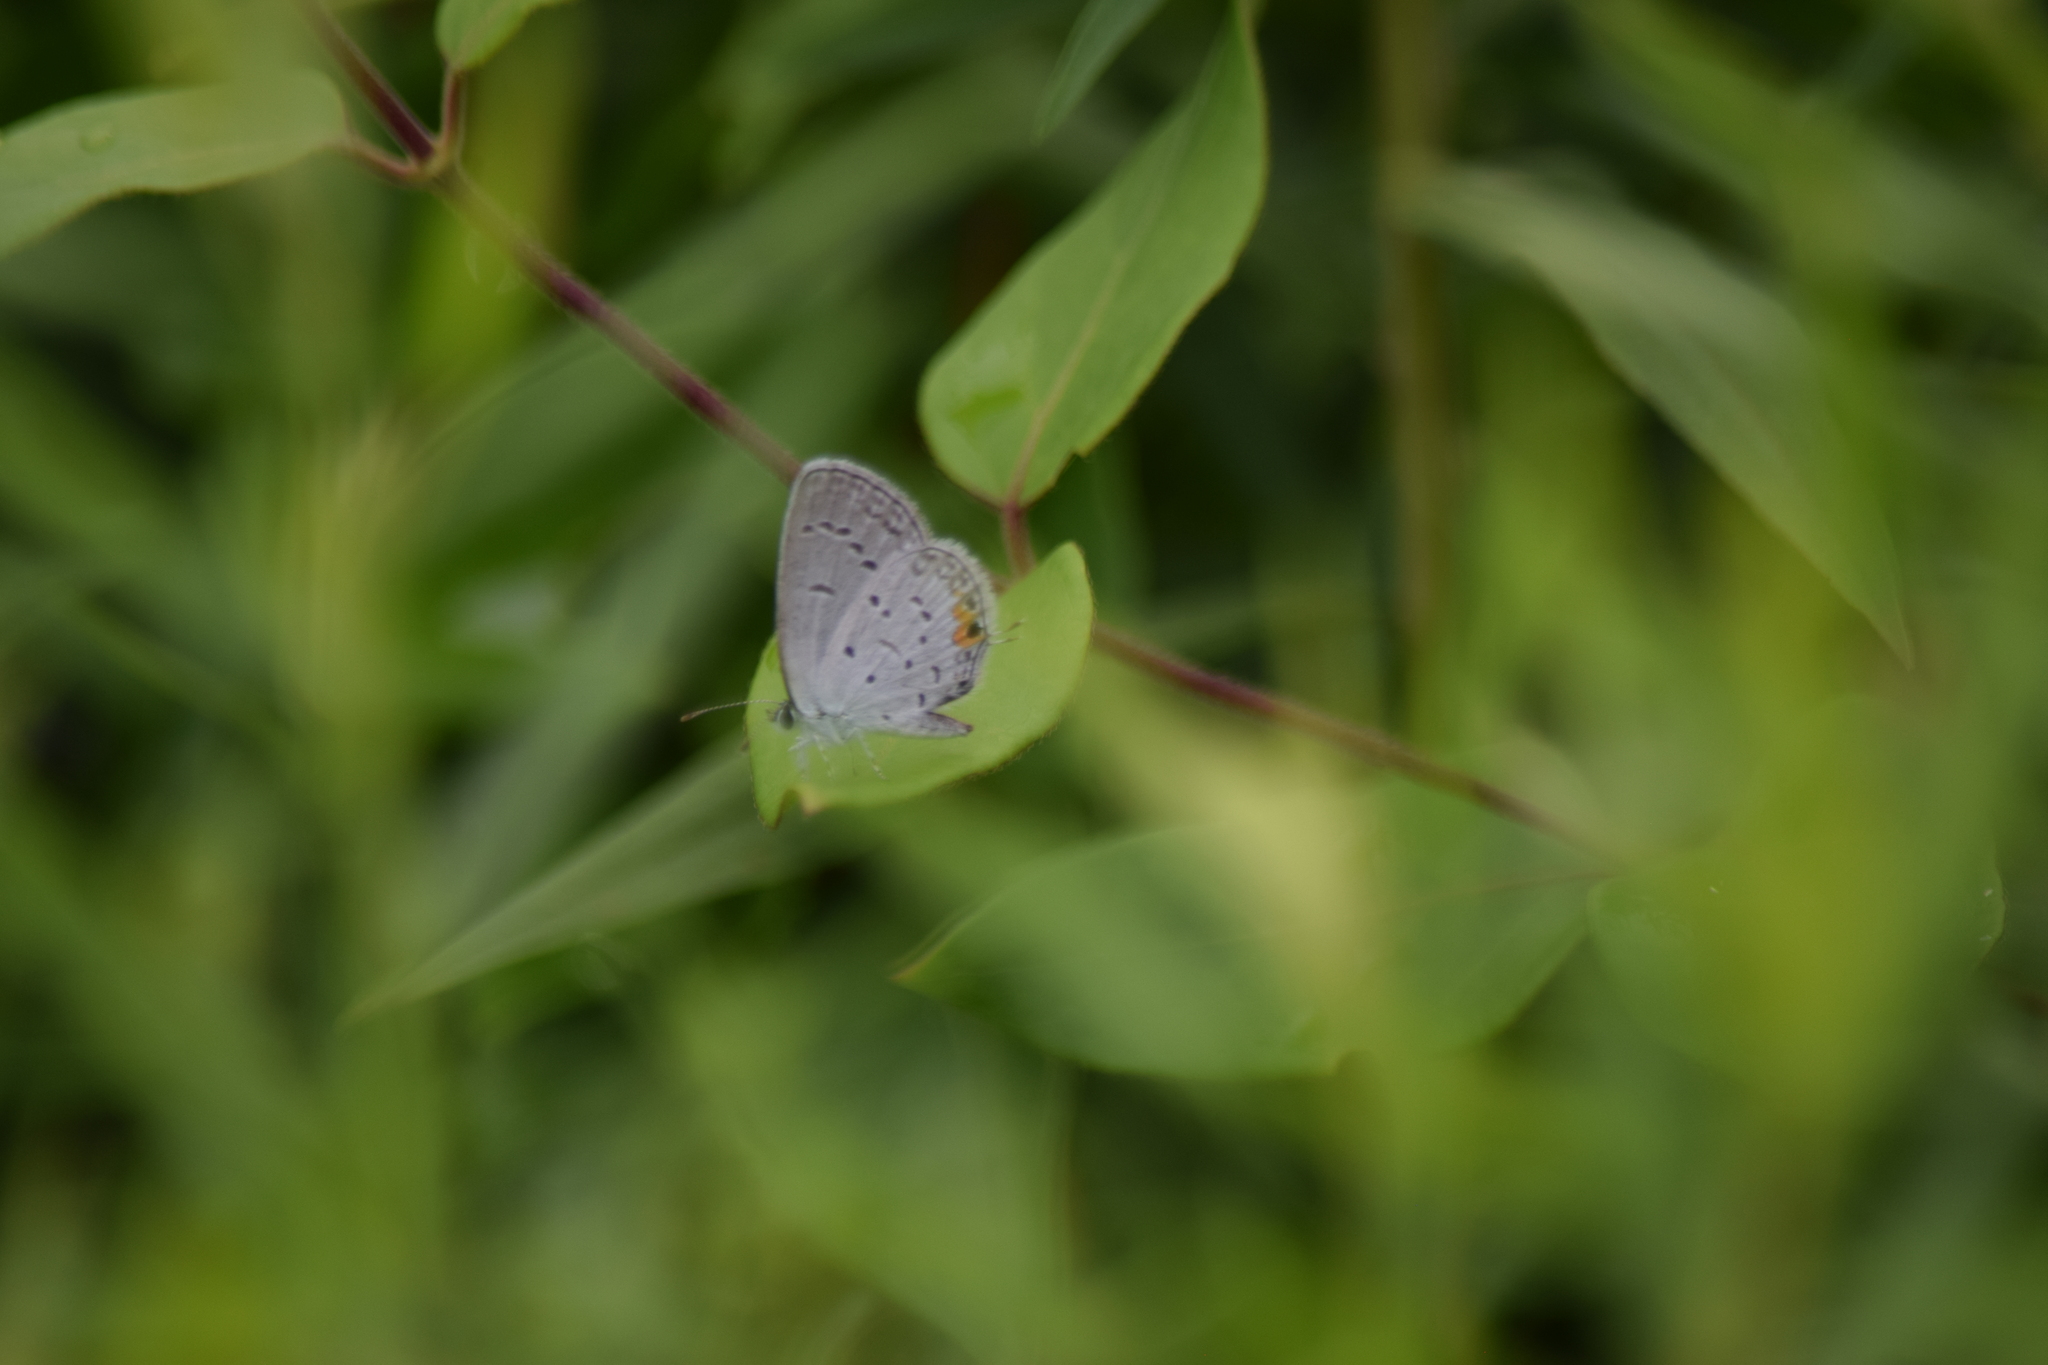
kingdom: Animalia
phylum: Arthropoda
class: Insecta
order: Lepidoptera
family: Lycaenidae
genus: Elkalyce
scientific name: Elkalyce comyntas
